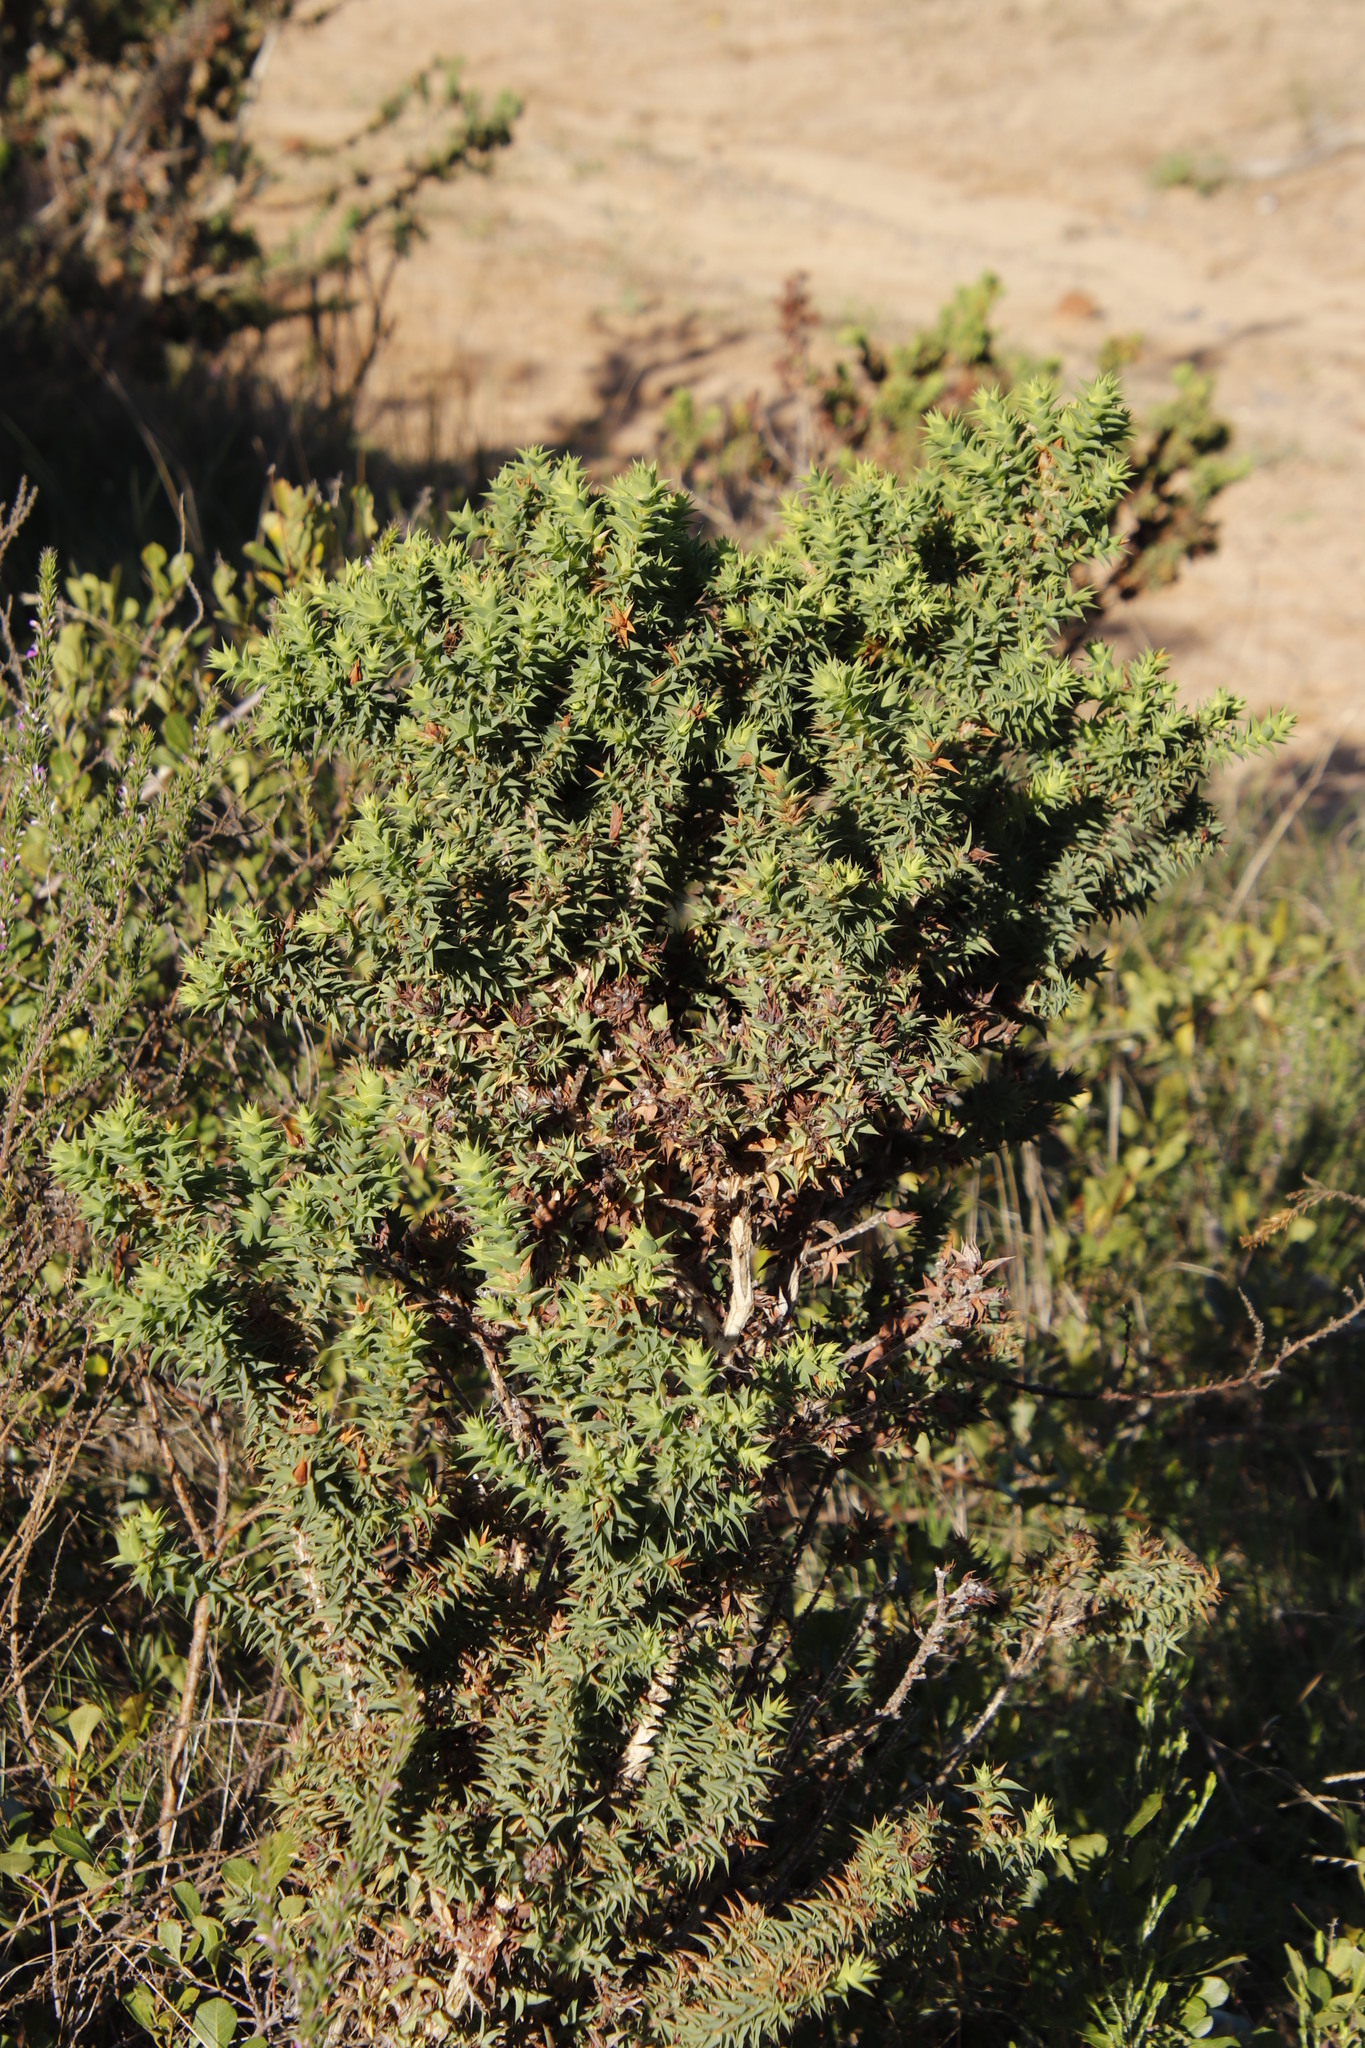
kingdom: Plantae
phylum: Tracheophyta
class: Magnoliopsida
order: Fabales
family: Fabaceae
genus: Aspalathus
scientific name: Aspalathus cordata
